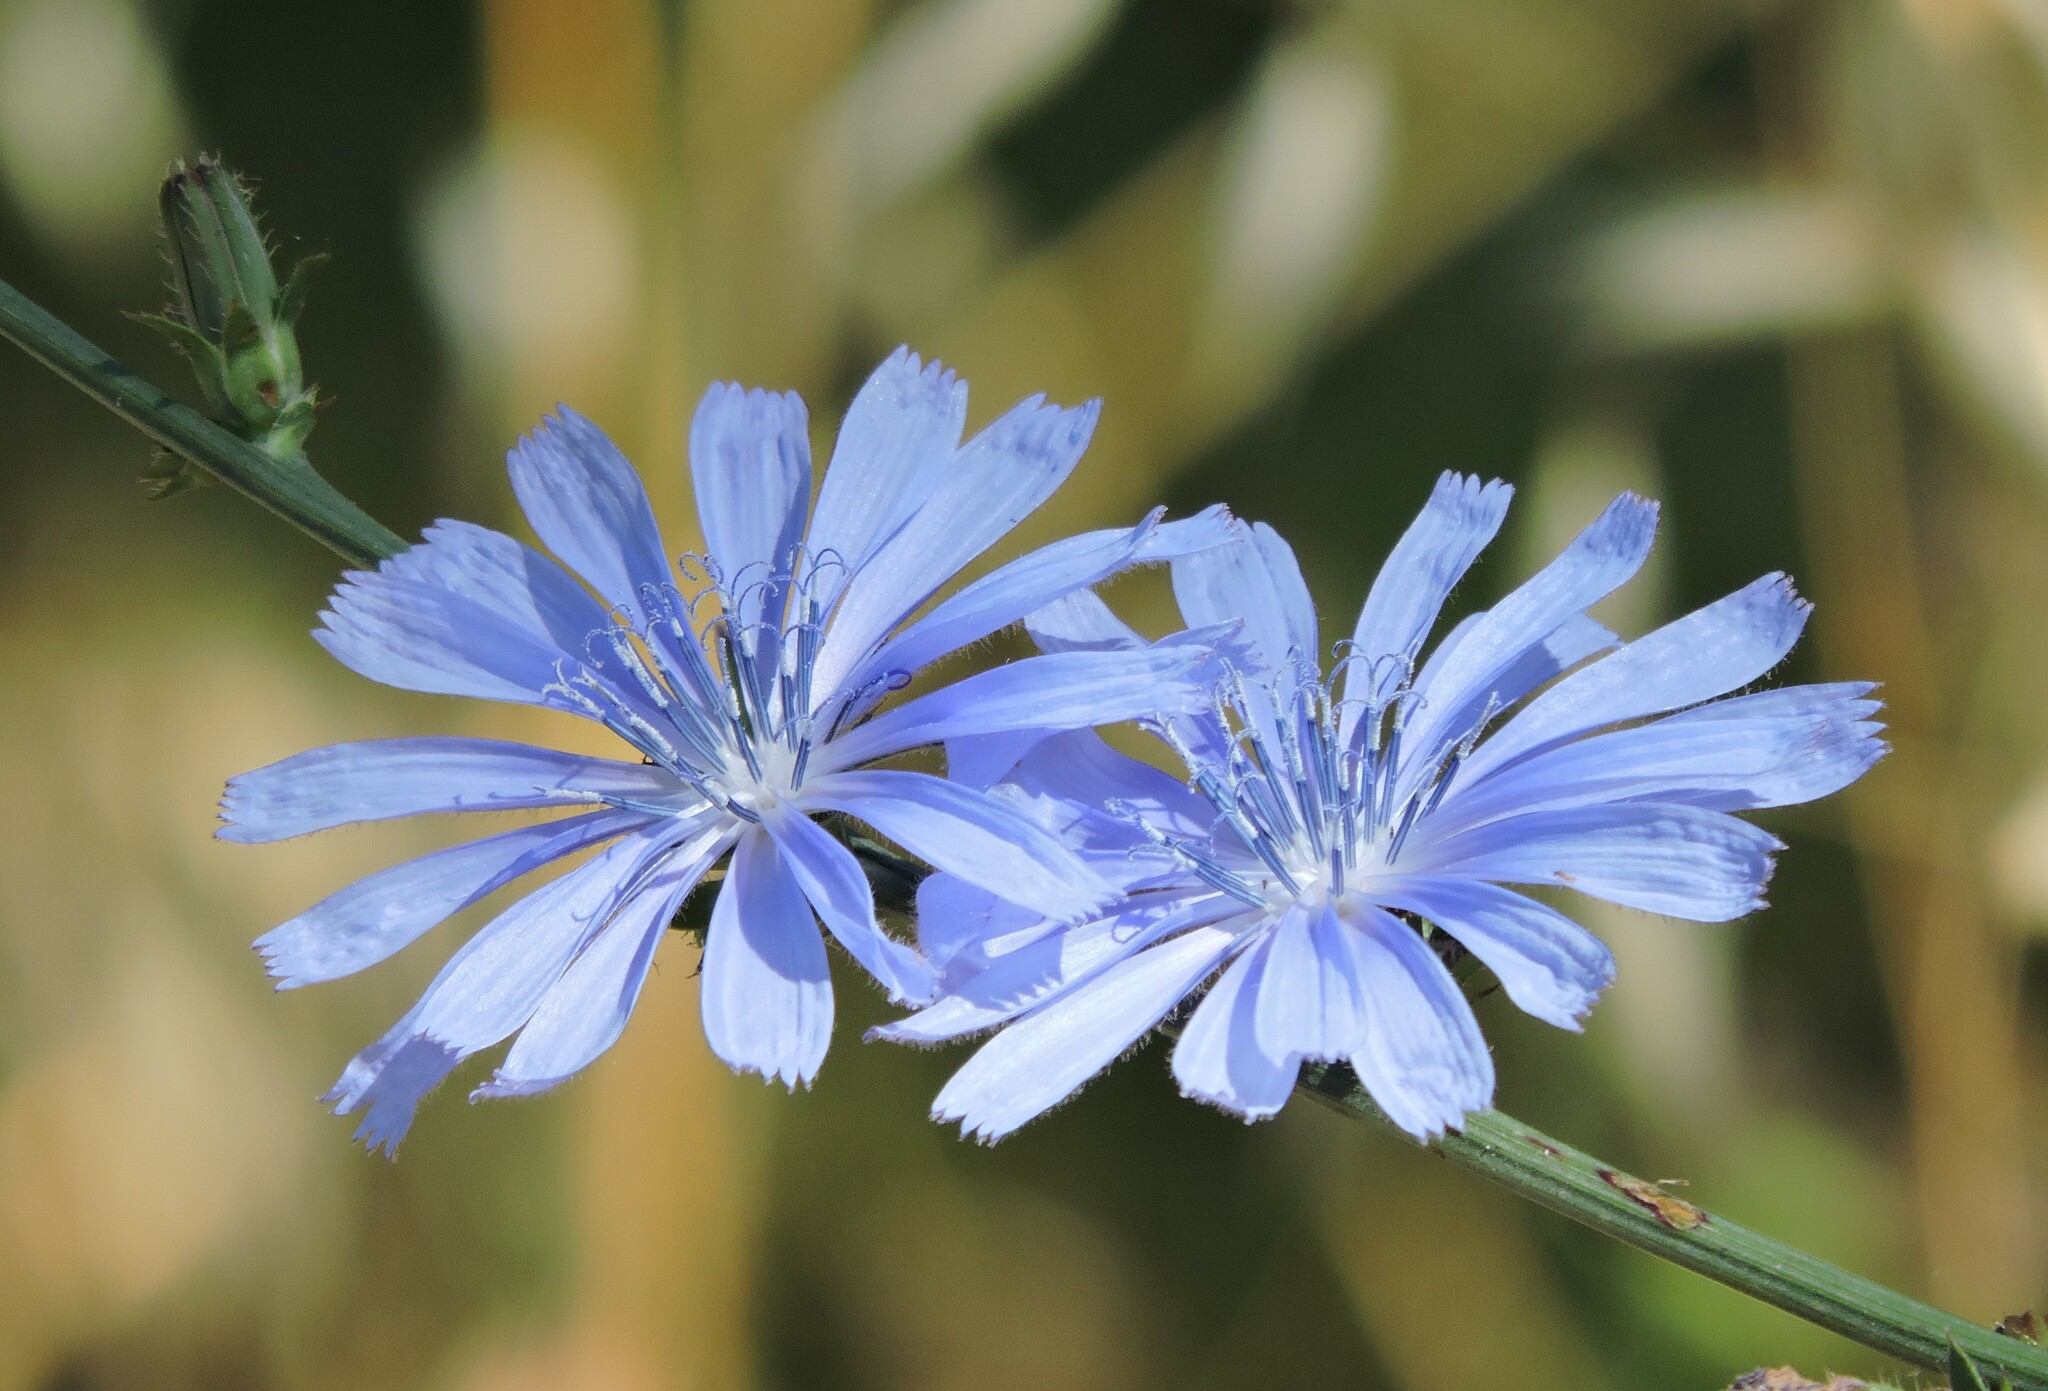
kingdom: Plantae
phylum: Tracheophyta
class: Magnoliopsida
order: Asterales
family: Asteraceae
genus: Cichorium
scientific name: Cichorium intybus
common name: Chicory
